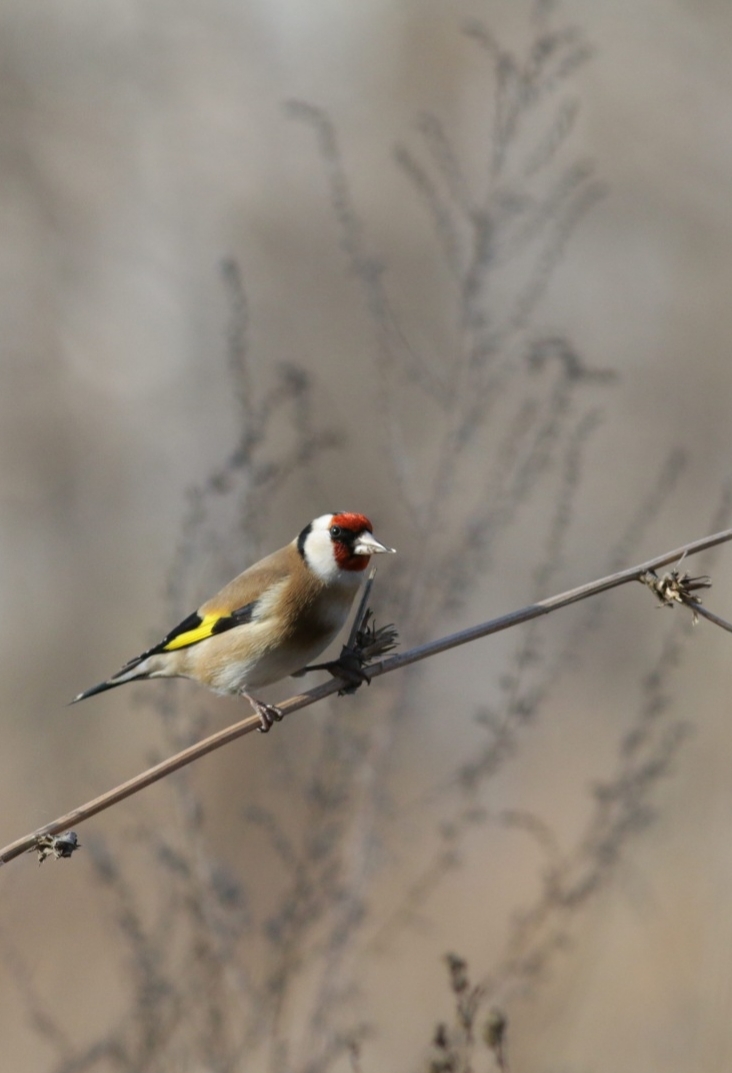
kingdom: Animalia
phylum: Chordata
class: Aves
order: Passeriformes
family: Fringillidae
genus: Carduelis
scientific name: Carduelis carduelis
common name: European goldfinch
